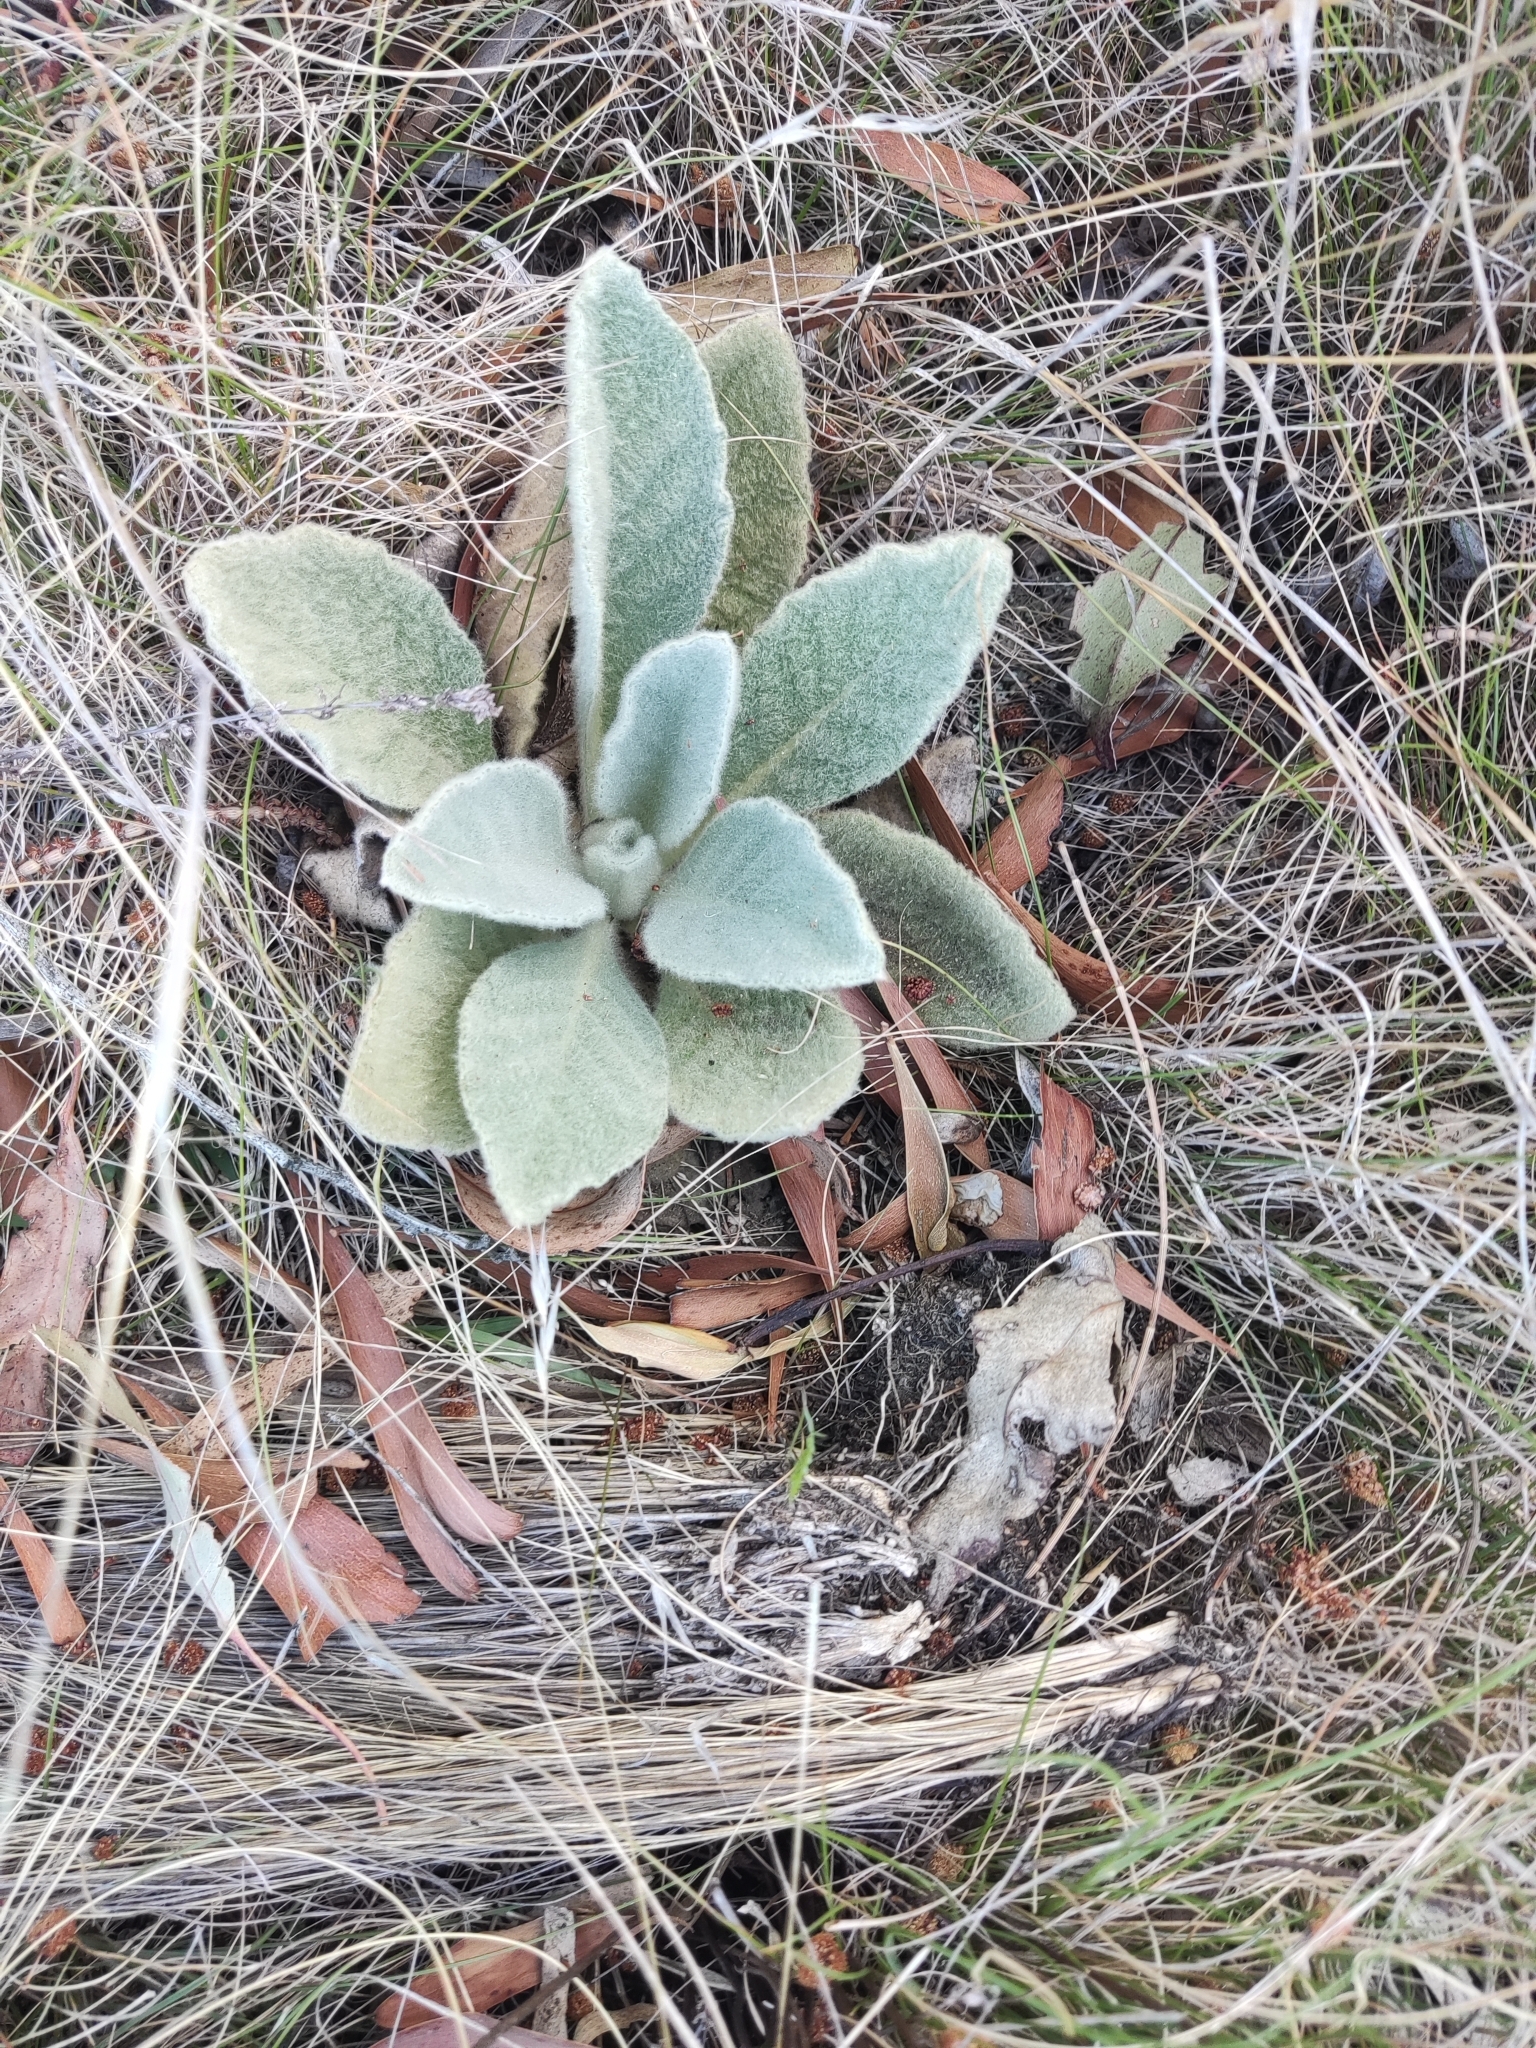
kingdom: Plantae
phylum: Tracheophyta
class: Magnoliopsida
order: Lamiales
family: Scrophulariaceae
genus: Verbascum
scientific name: Verbascum thapsus
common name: Common mullein
